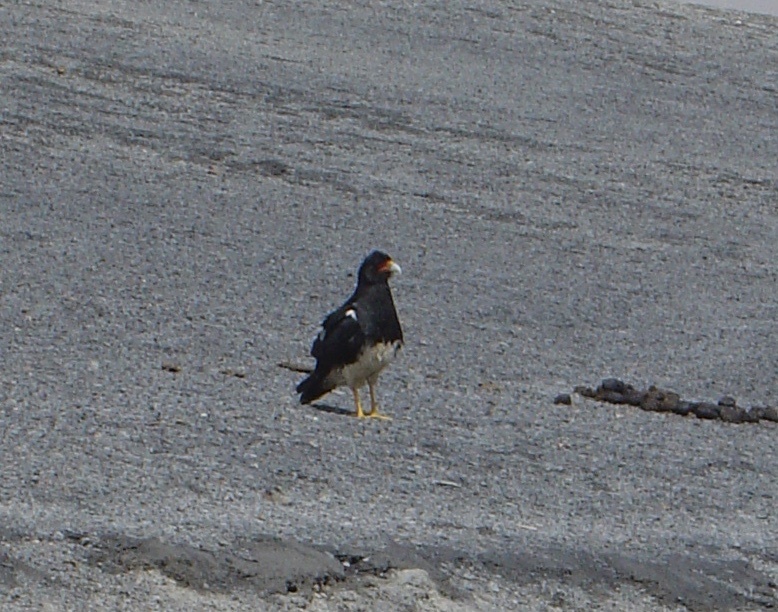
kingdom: Animalia
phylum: Chordata
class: Aves
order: Falconiformes
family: Falconidae
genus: Daptrius
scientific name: Daptrius
